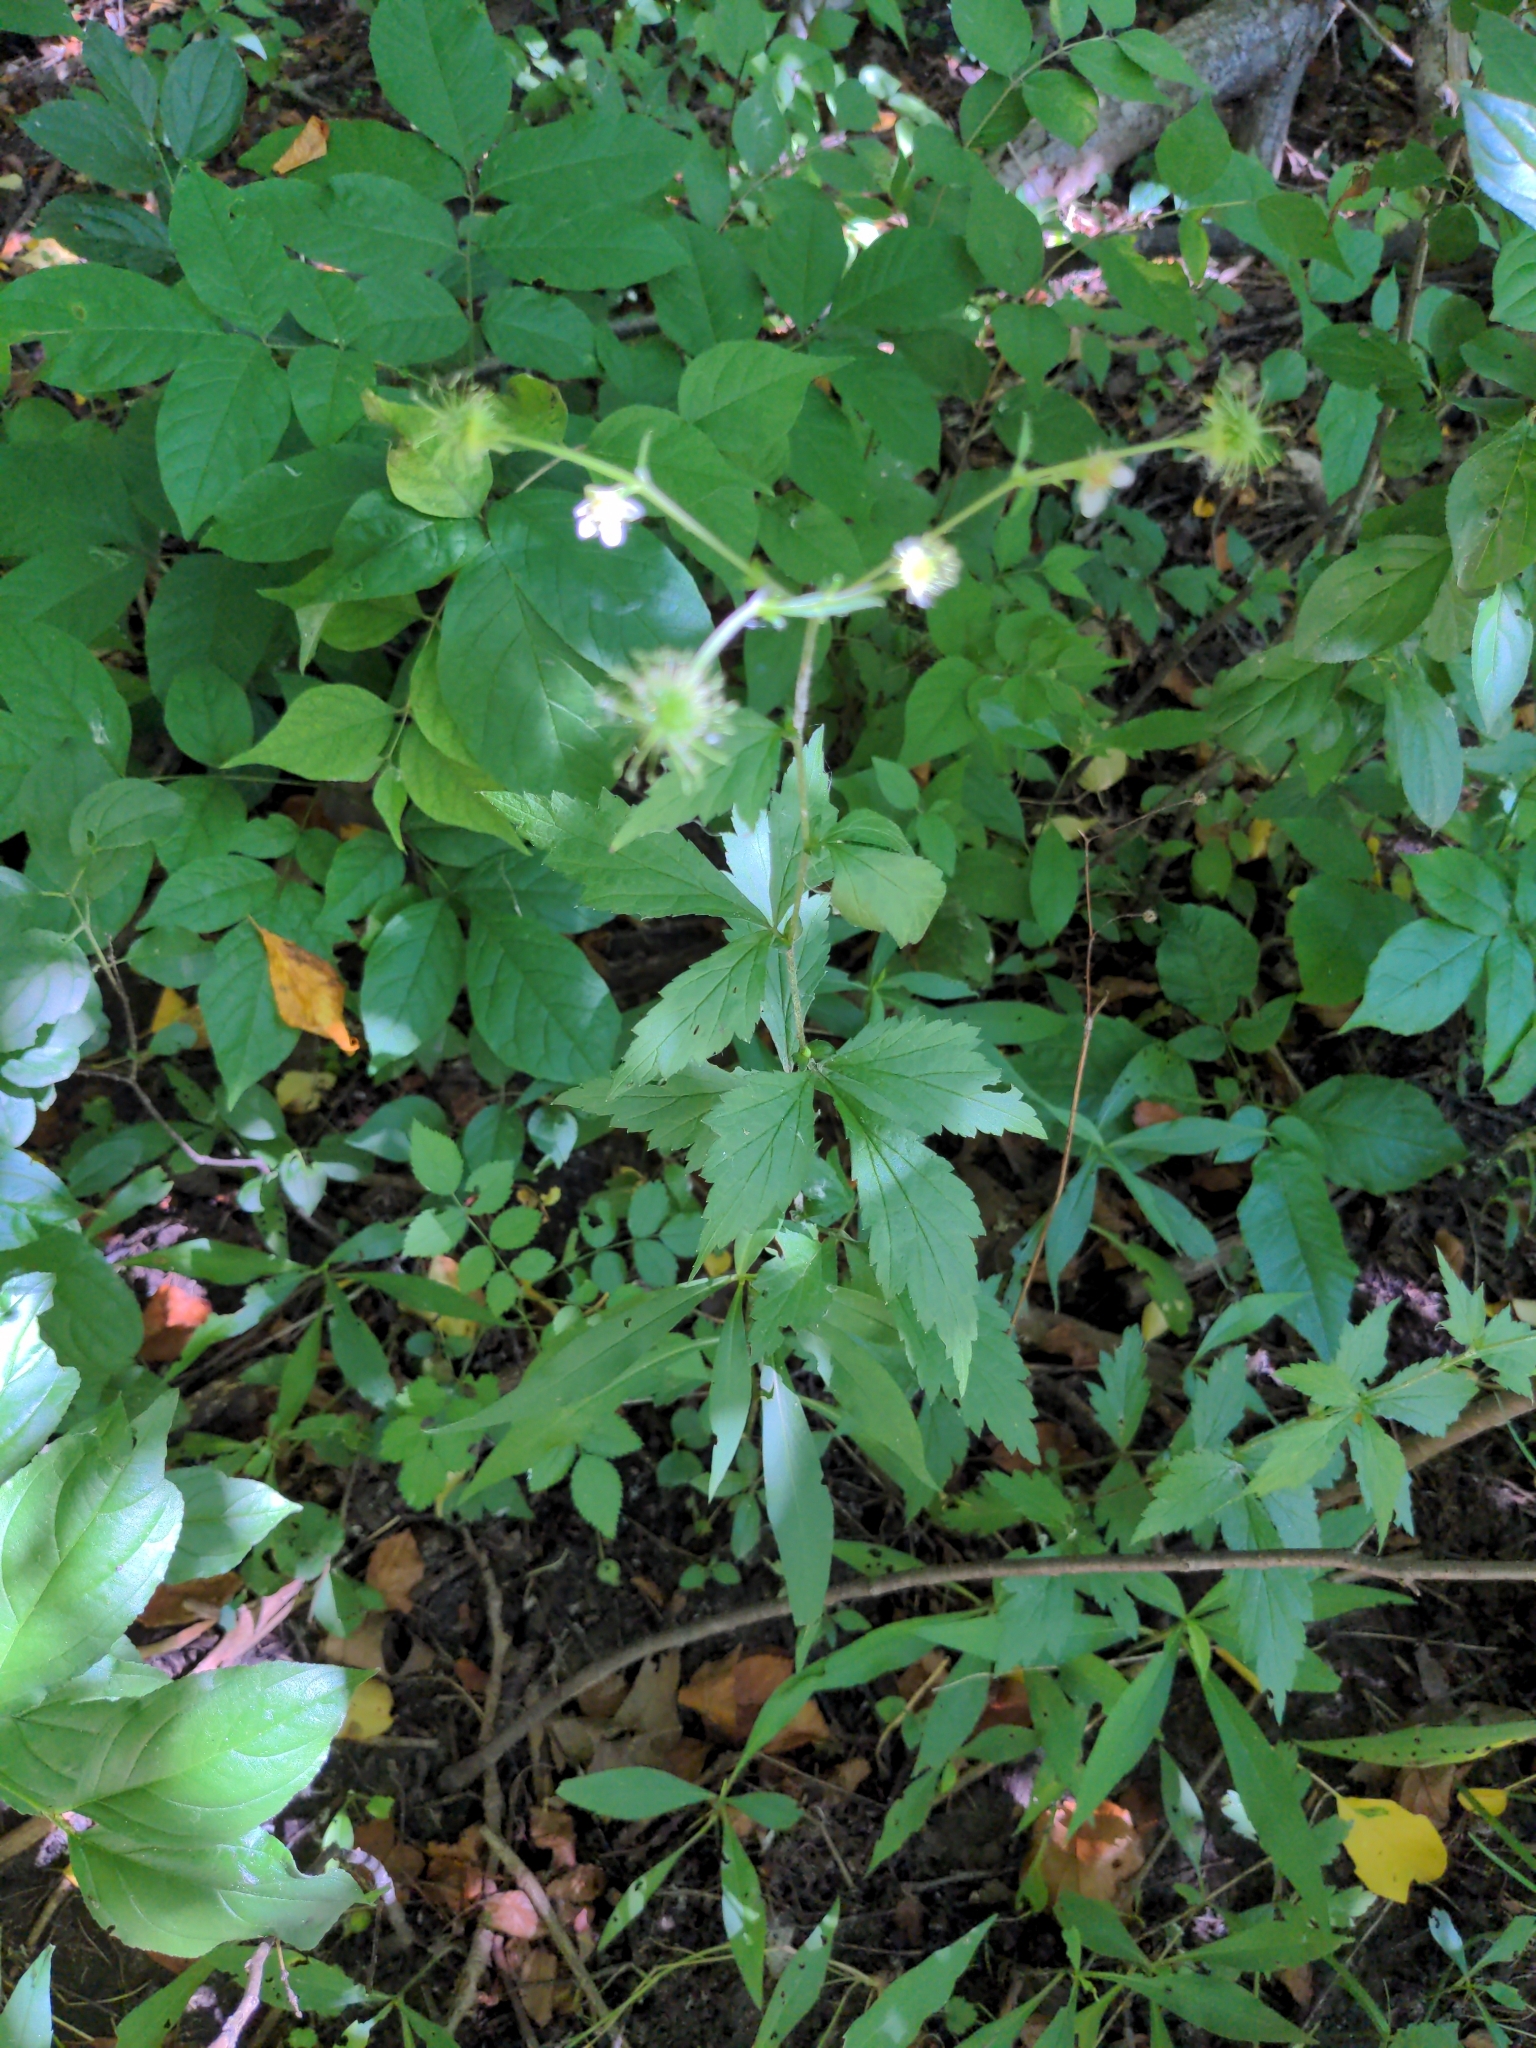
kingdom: Plantae
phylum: Tracheophyta
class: Magnoliopsida
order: Rosales
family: Rosaceae
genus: Geum
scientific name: Geum canadense
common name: White avens
